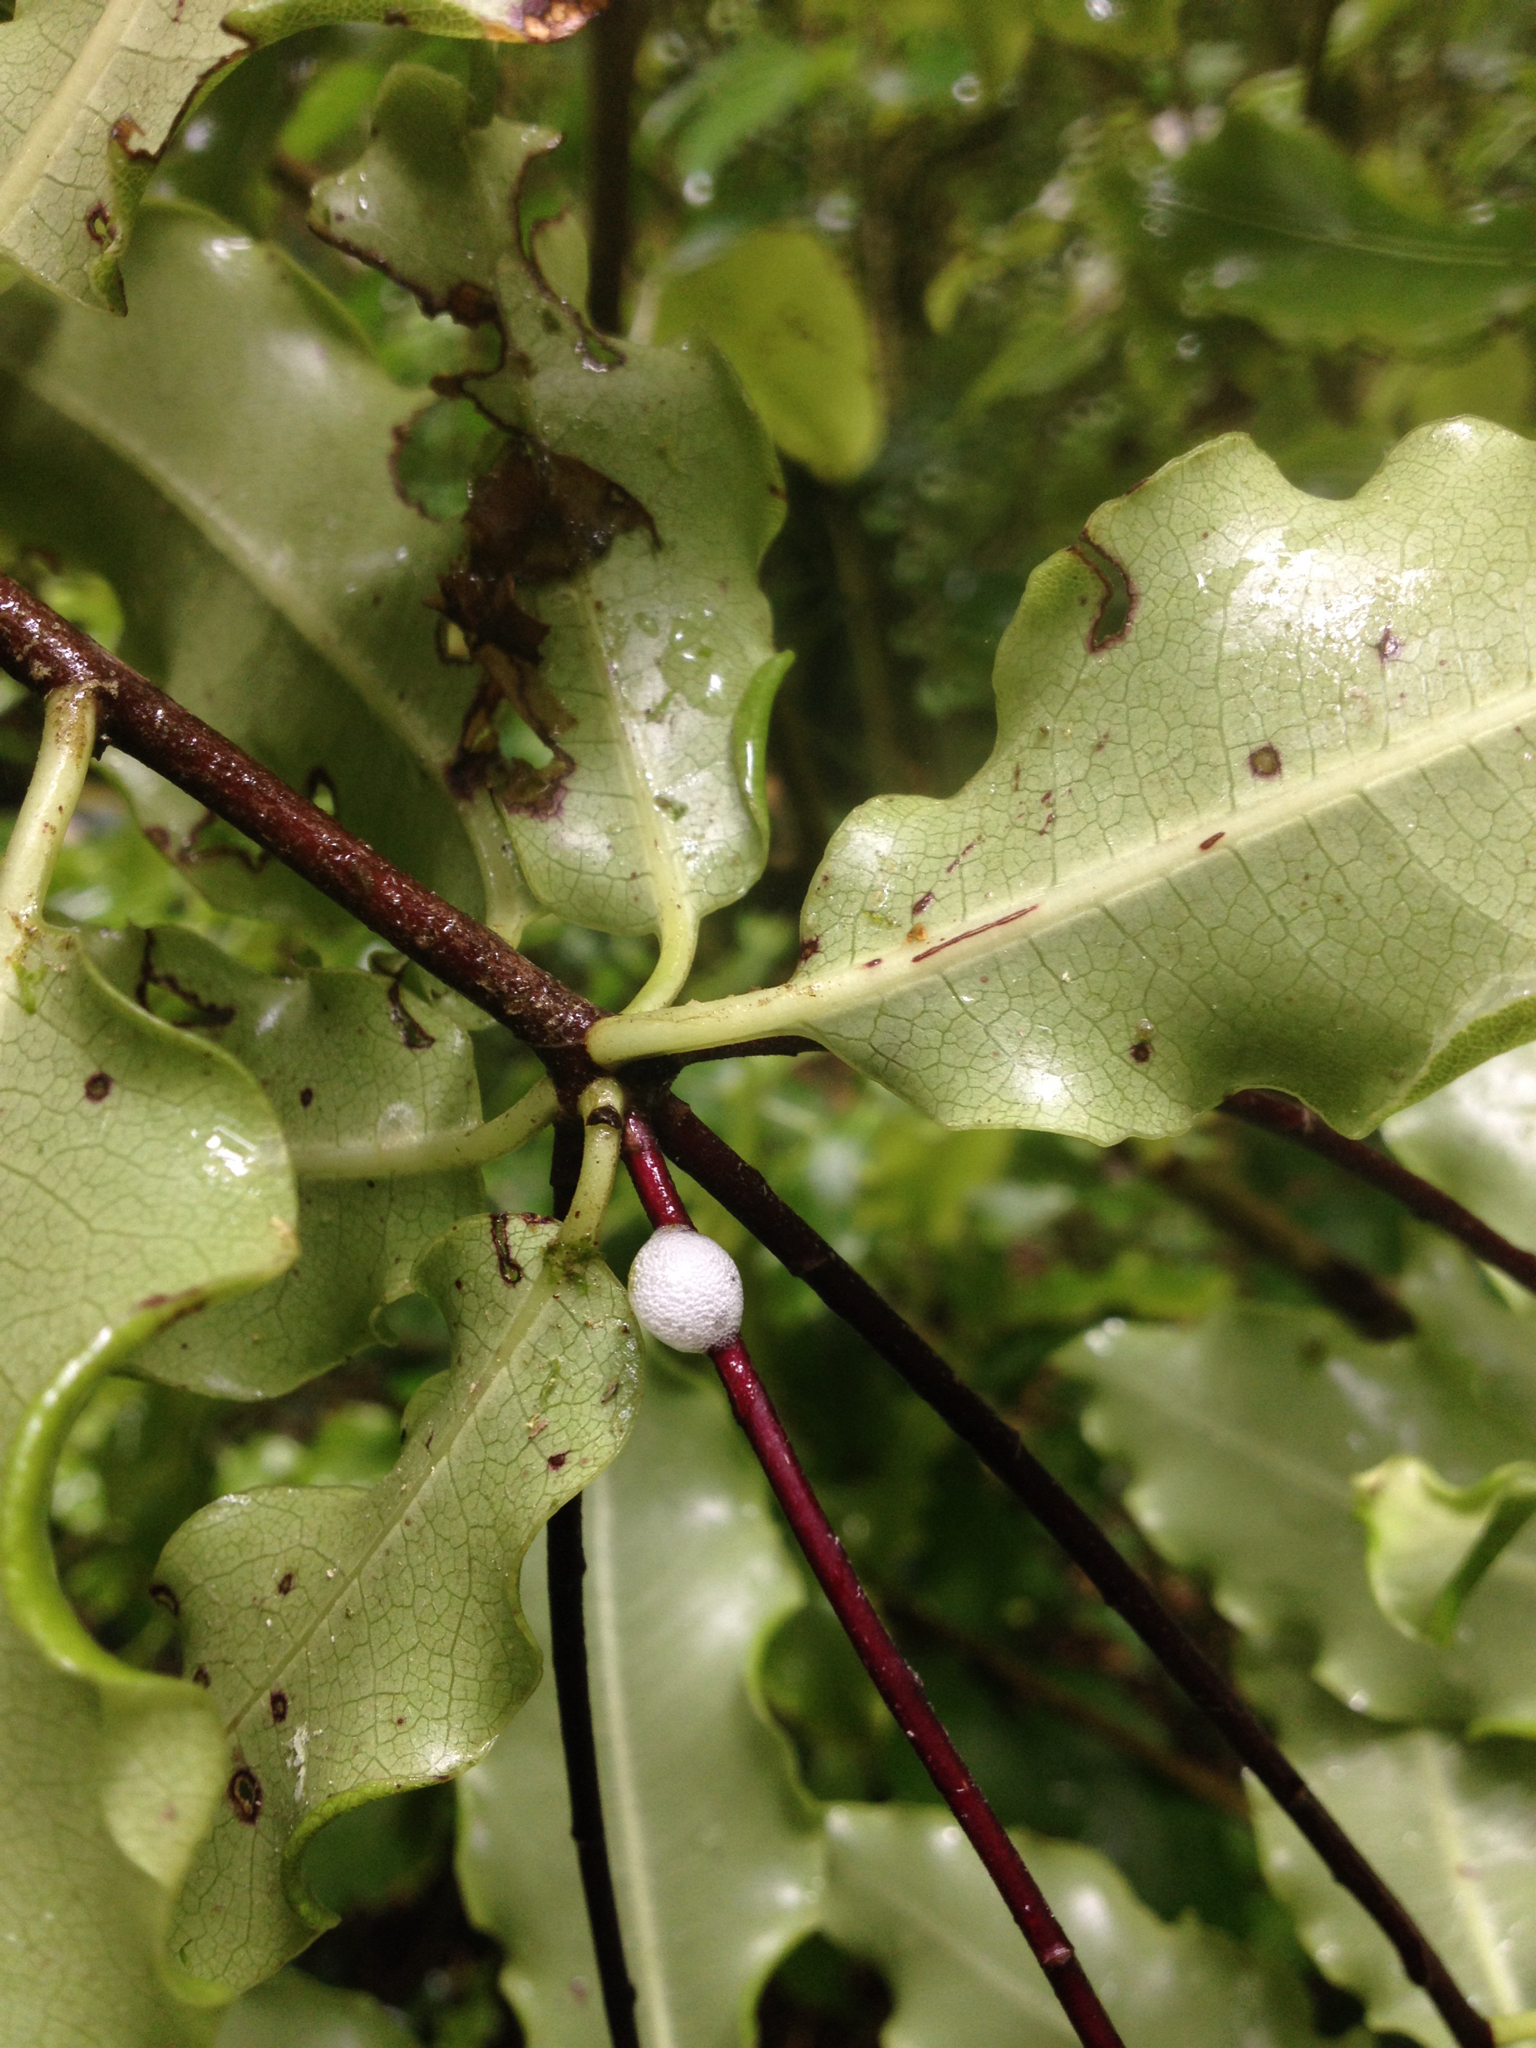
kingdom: Plantae
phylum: Tracheophyta
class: Magnoliopsida
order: Apiales
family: Pittosporaceae
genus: Pittosporum
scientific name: Pittosporum eugenioides
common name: Lemonwood
